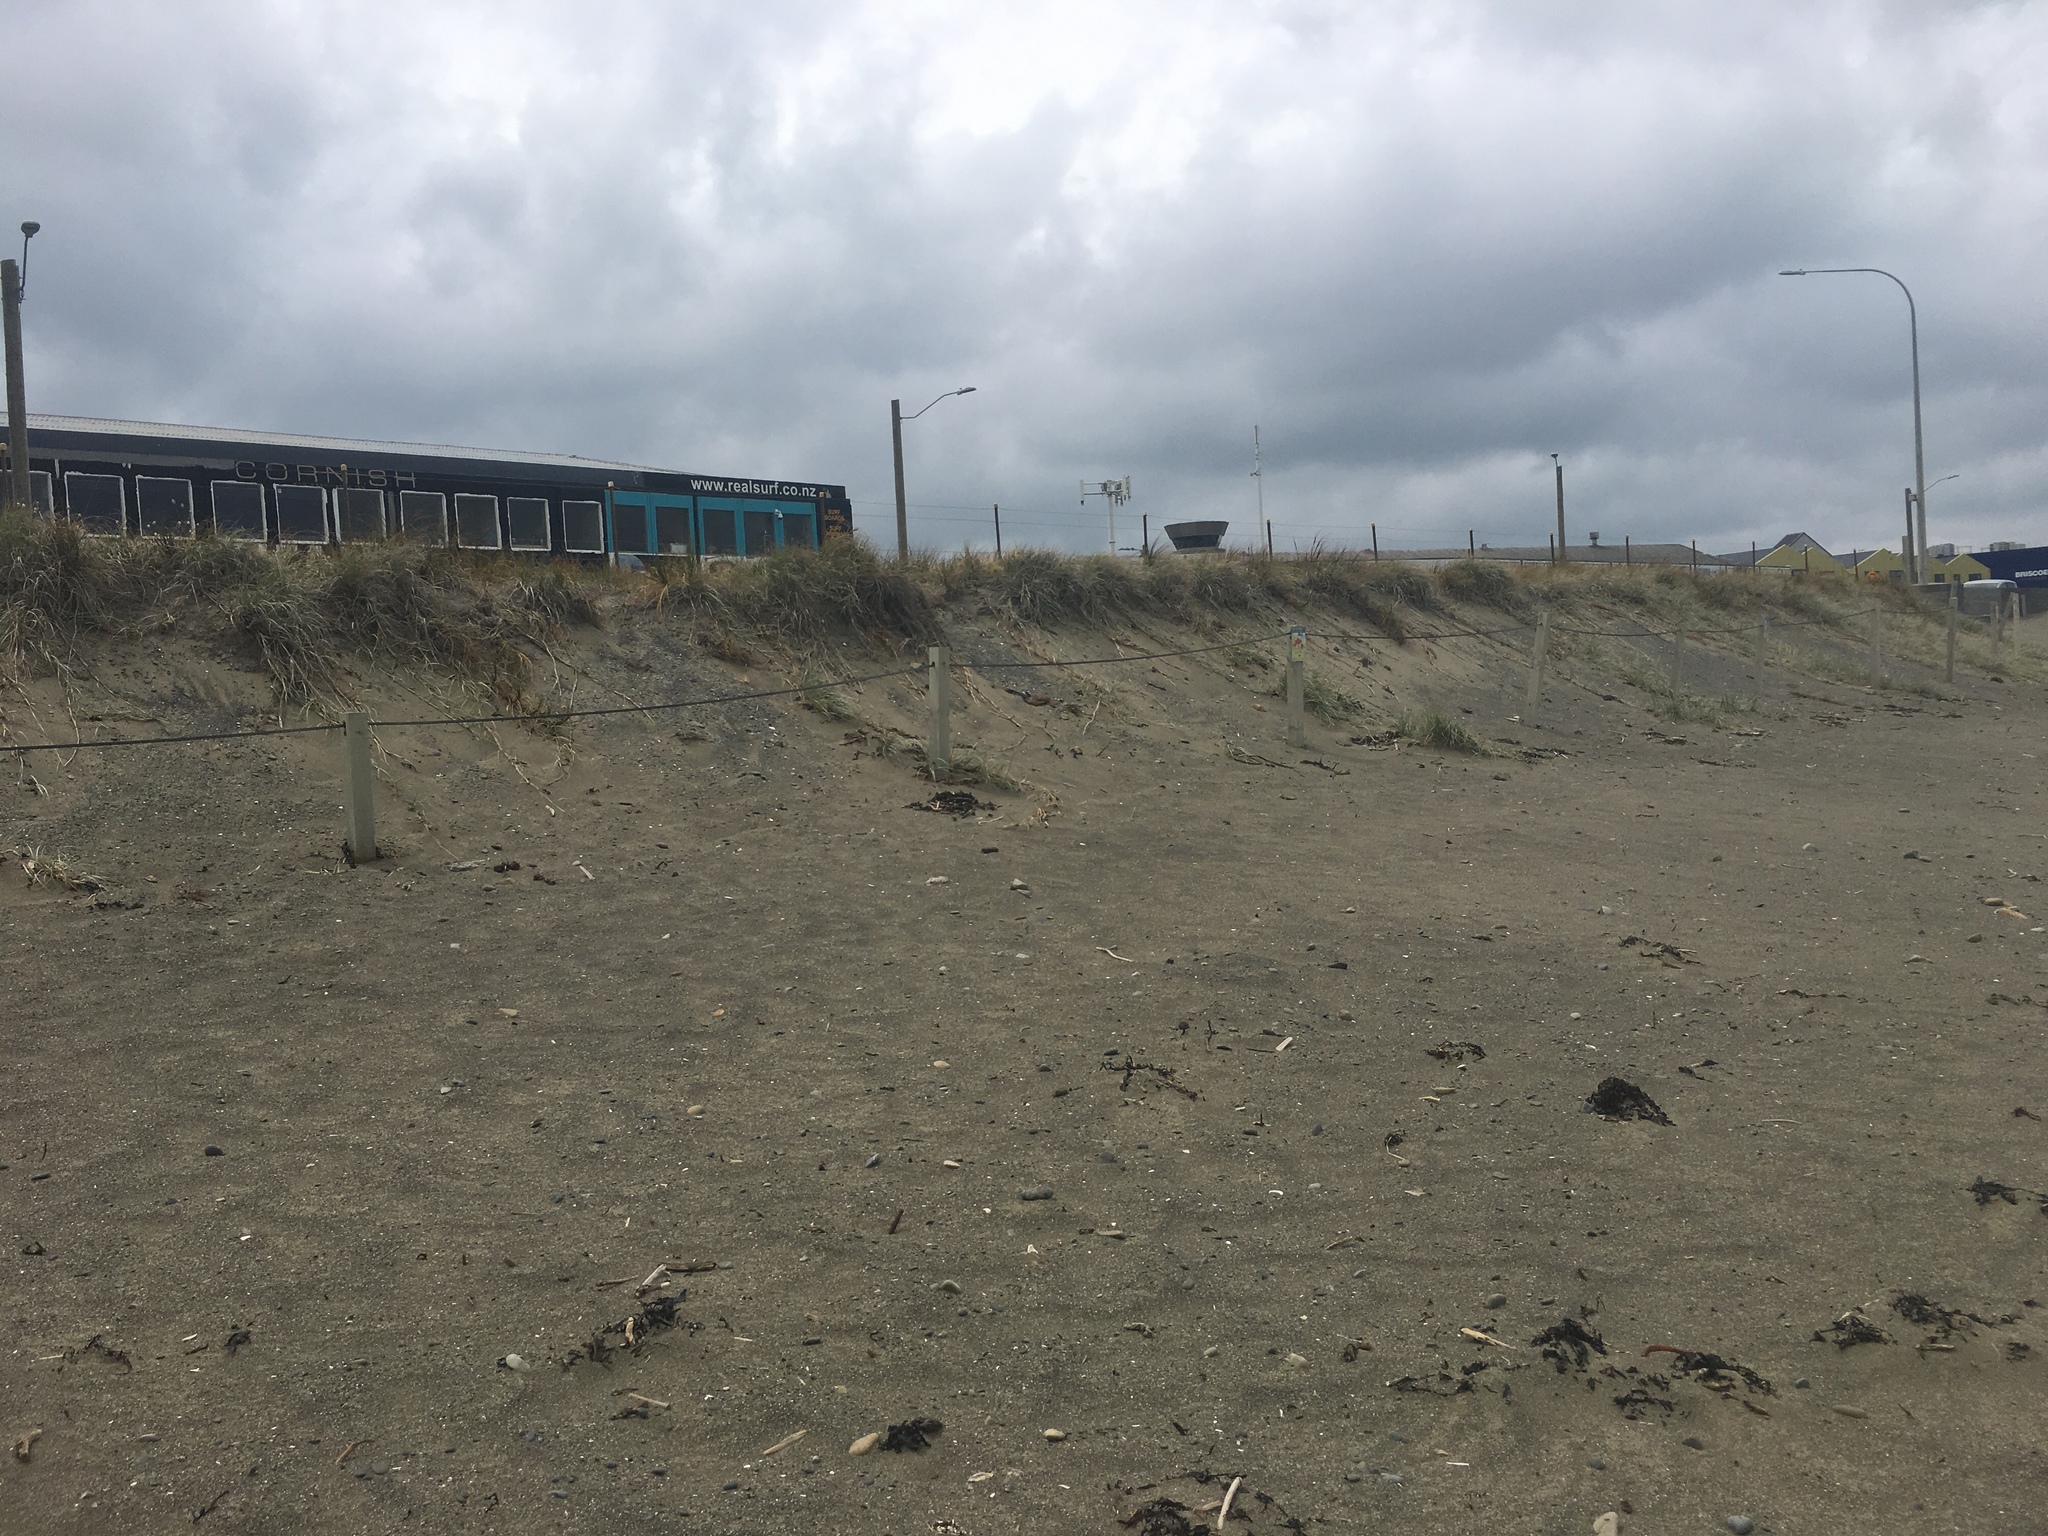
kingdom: Plantae
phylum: Tracheophyta
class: Liliopsida
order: Poales
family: Poaceae
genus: Spinifex
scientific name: Spinifex sericeus
